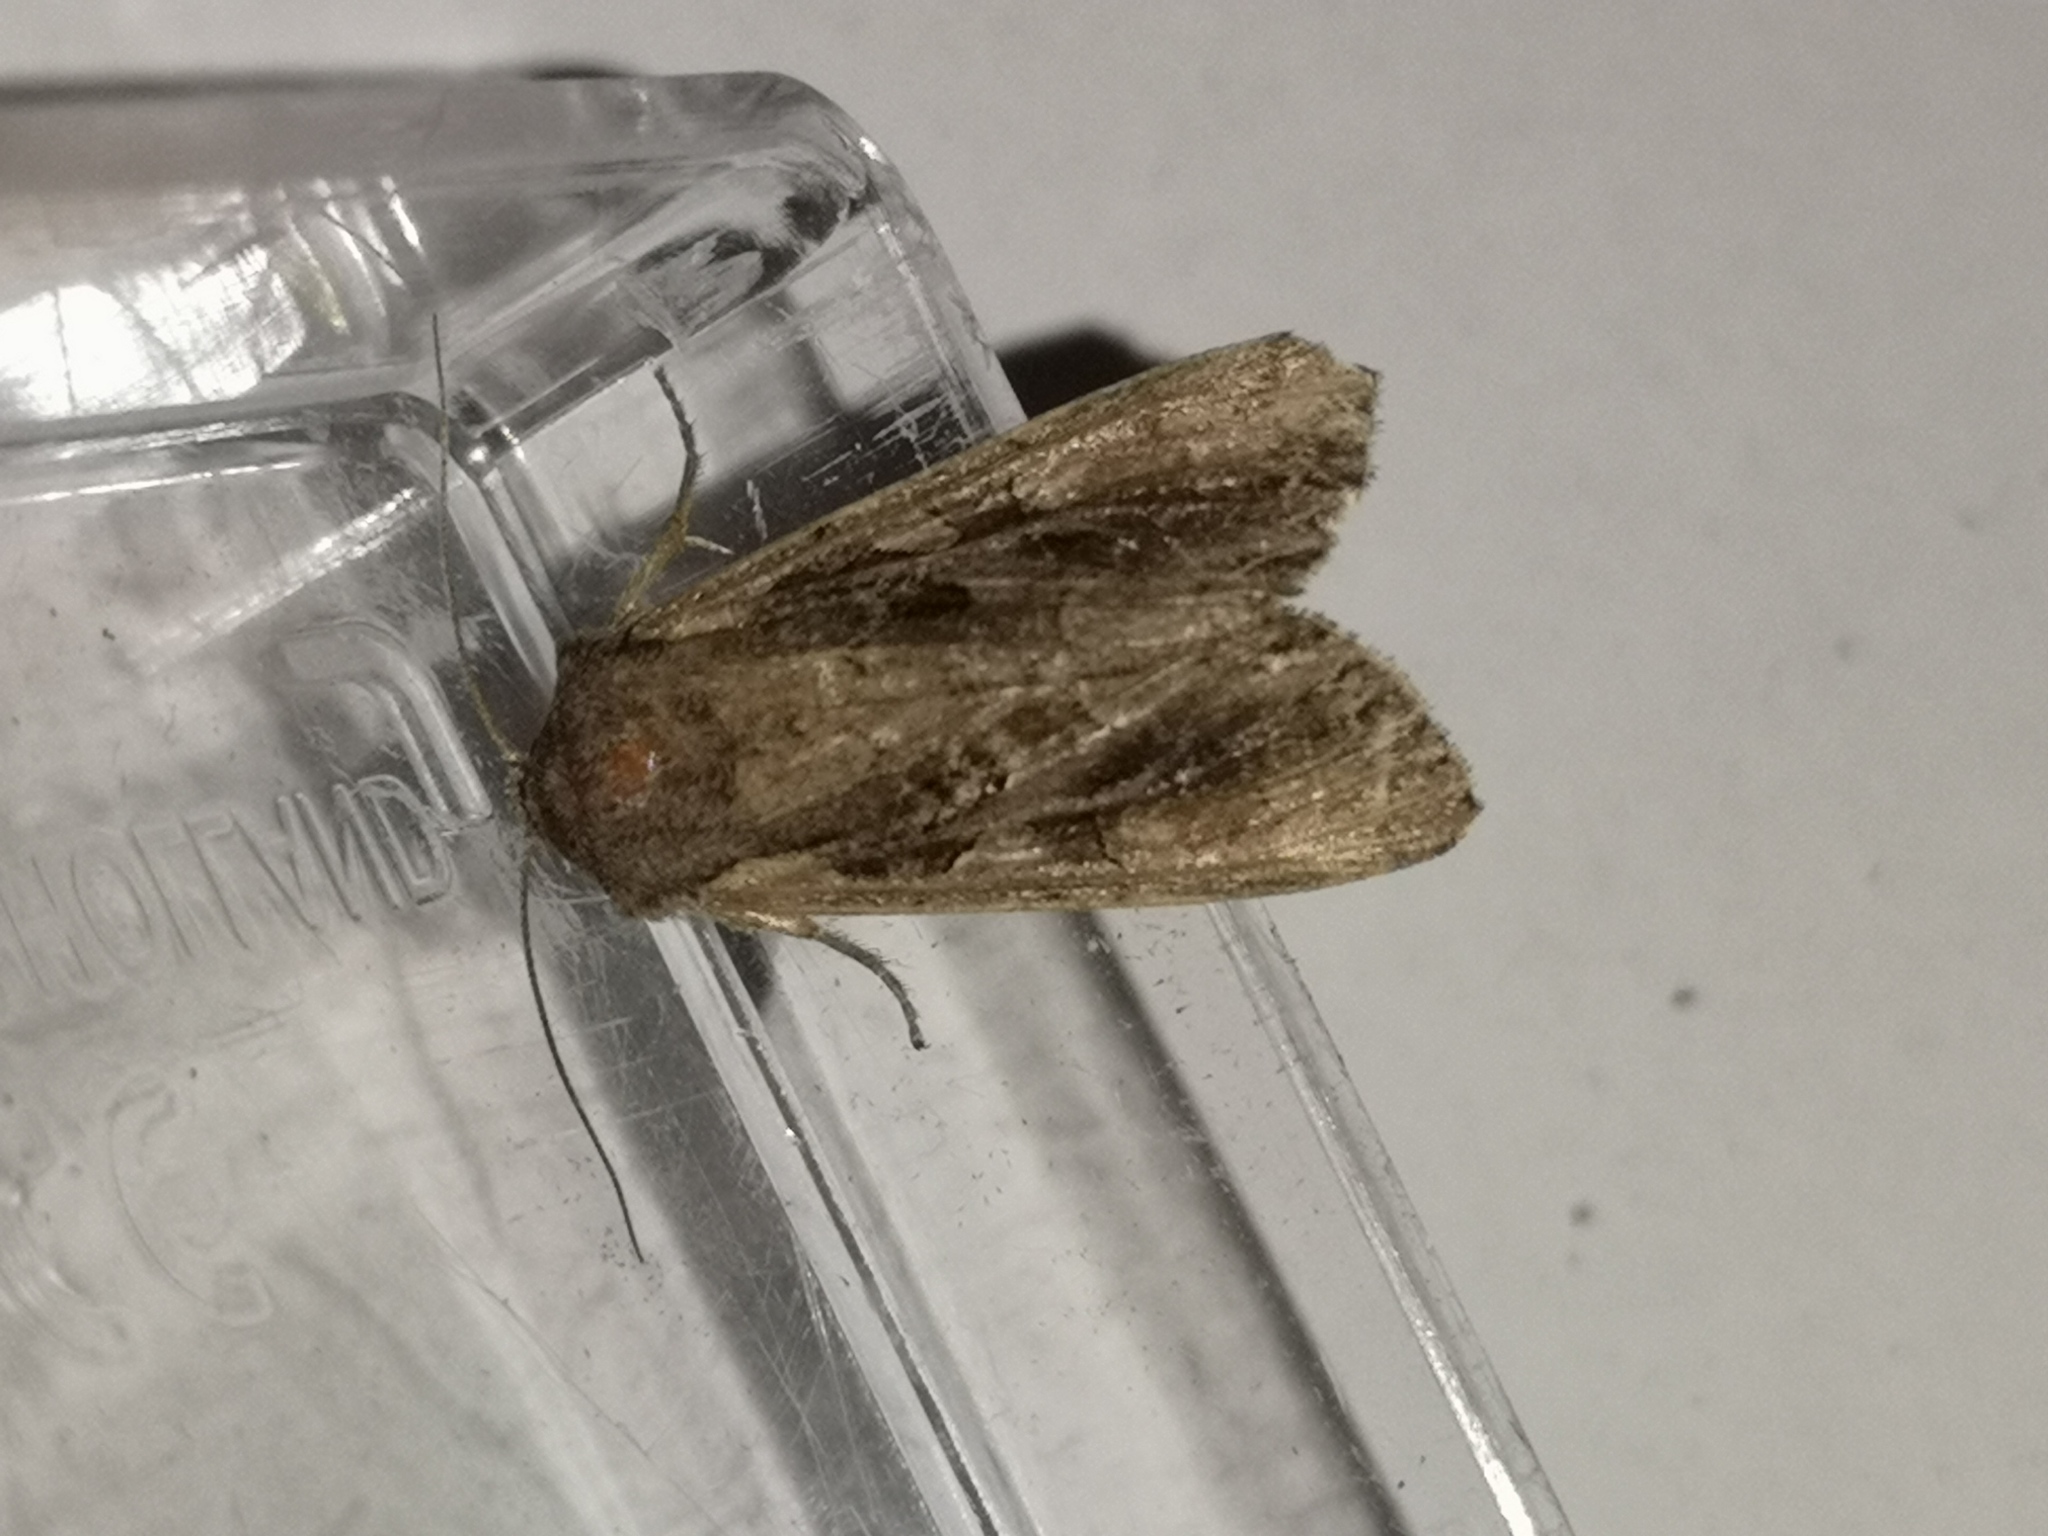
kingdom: Animalia
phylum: Arthropoda
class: Insecta
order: Lepidoptera
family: Noctuidae
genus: Lacanobia
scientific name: Lacanobia suasa
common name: Dog's tooth
